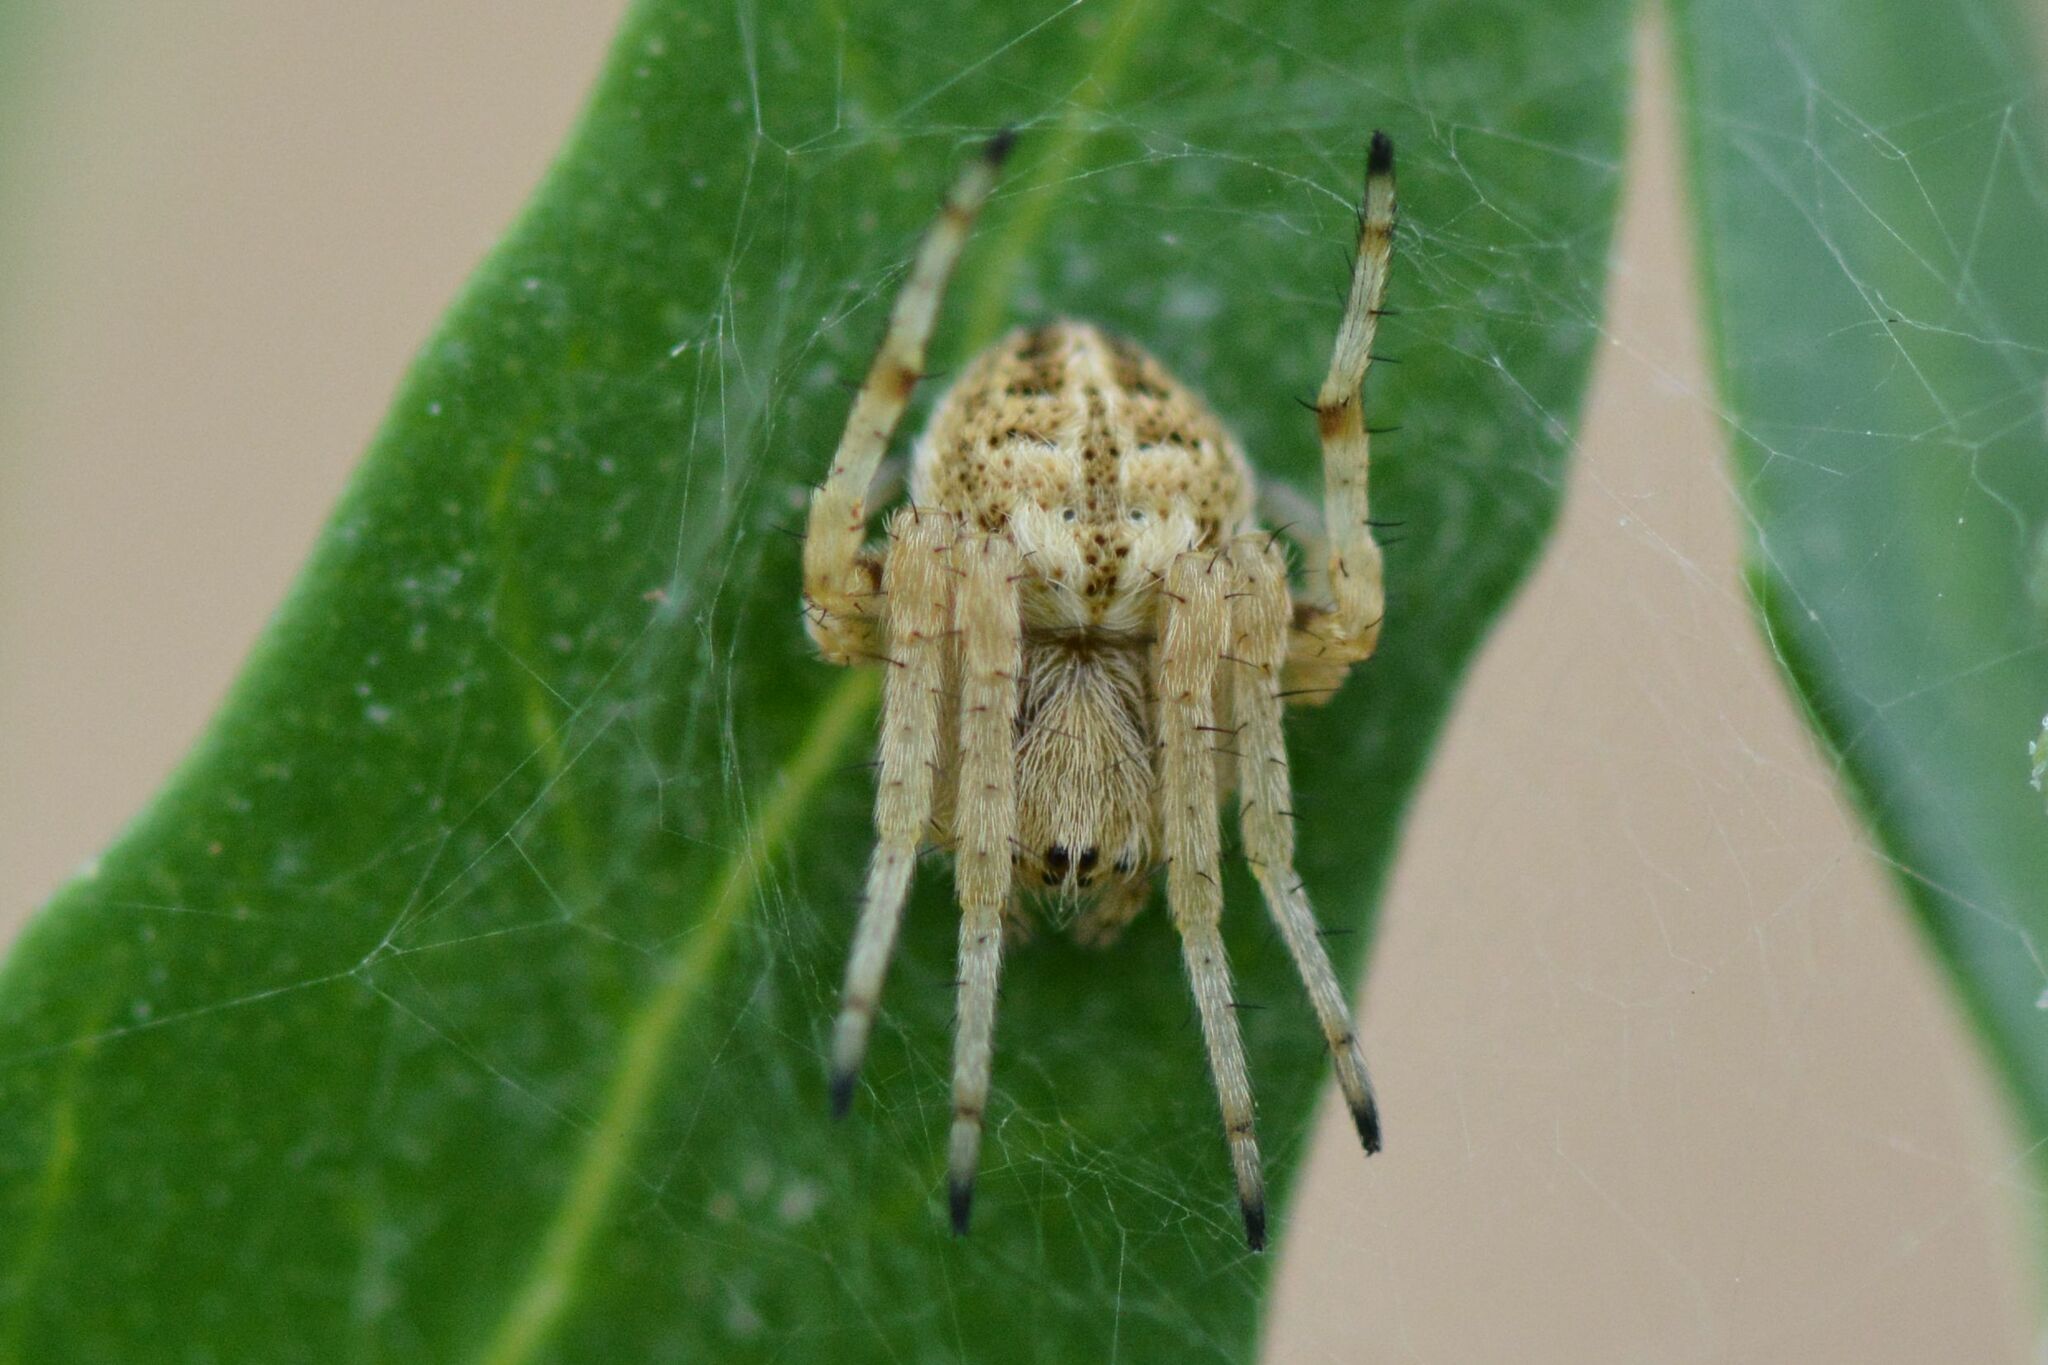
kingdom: Animalia
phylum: Arthropoda
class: Arachnida
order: Araneae
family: Araneidae
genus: Agalenatea
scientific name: Agalenatea redii
